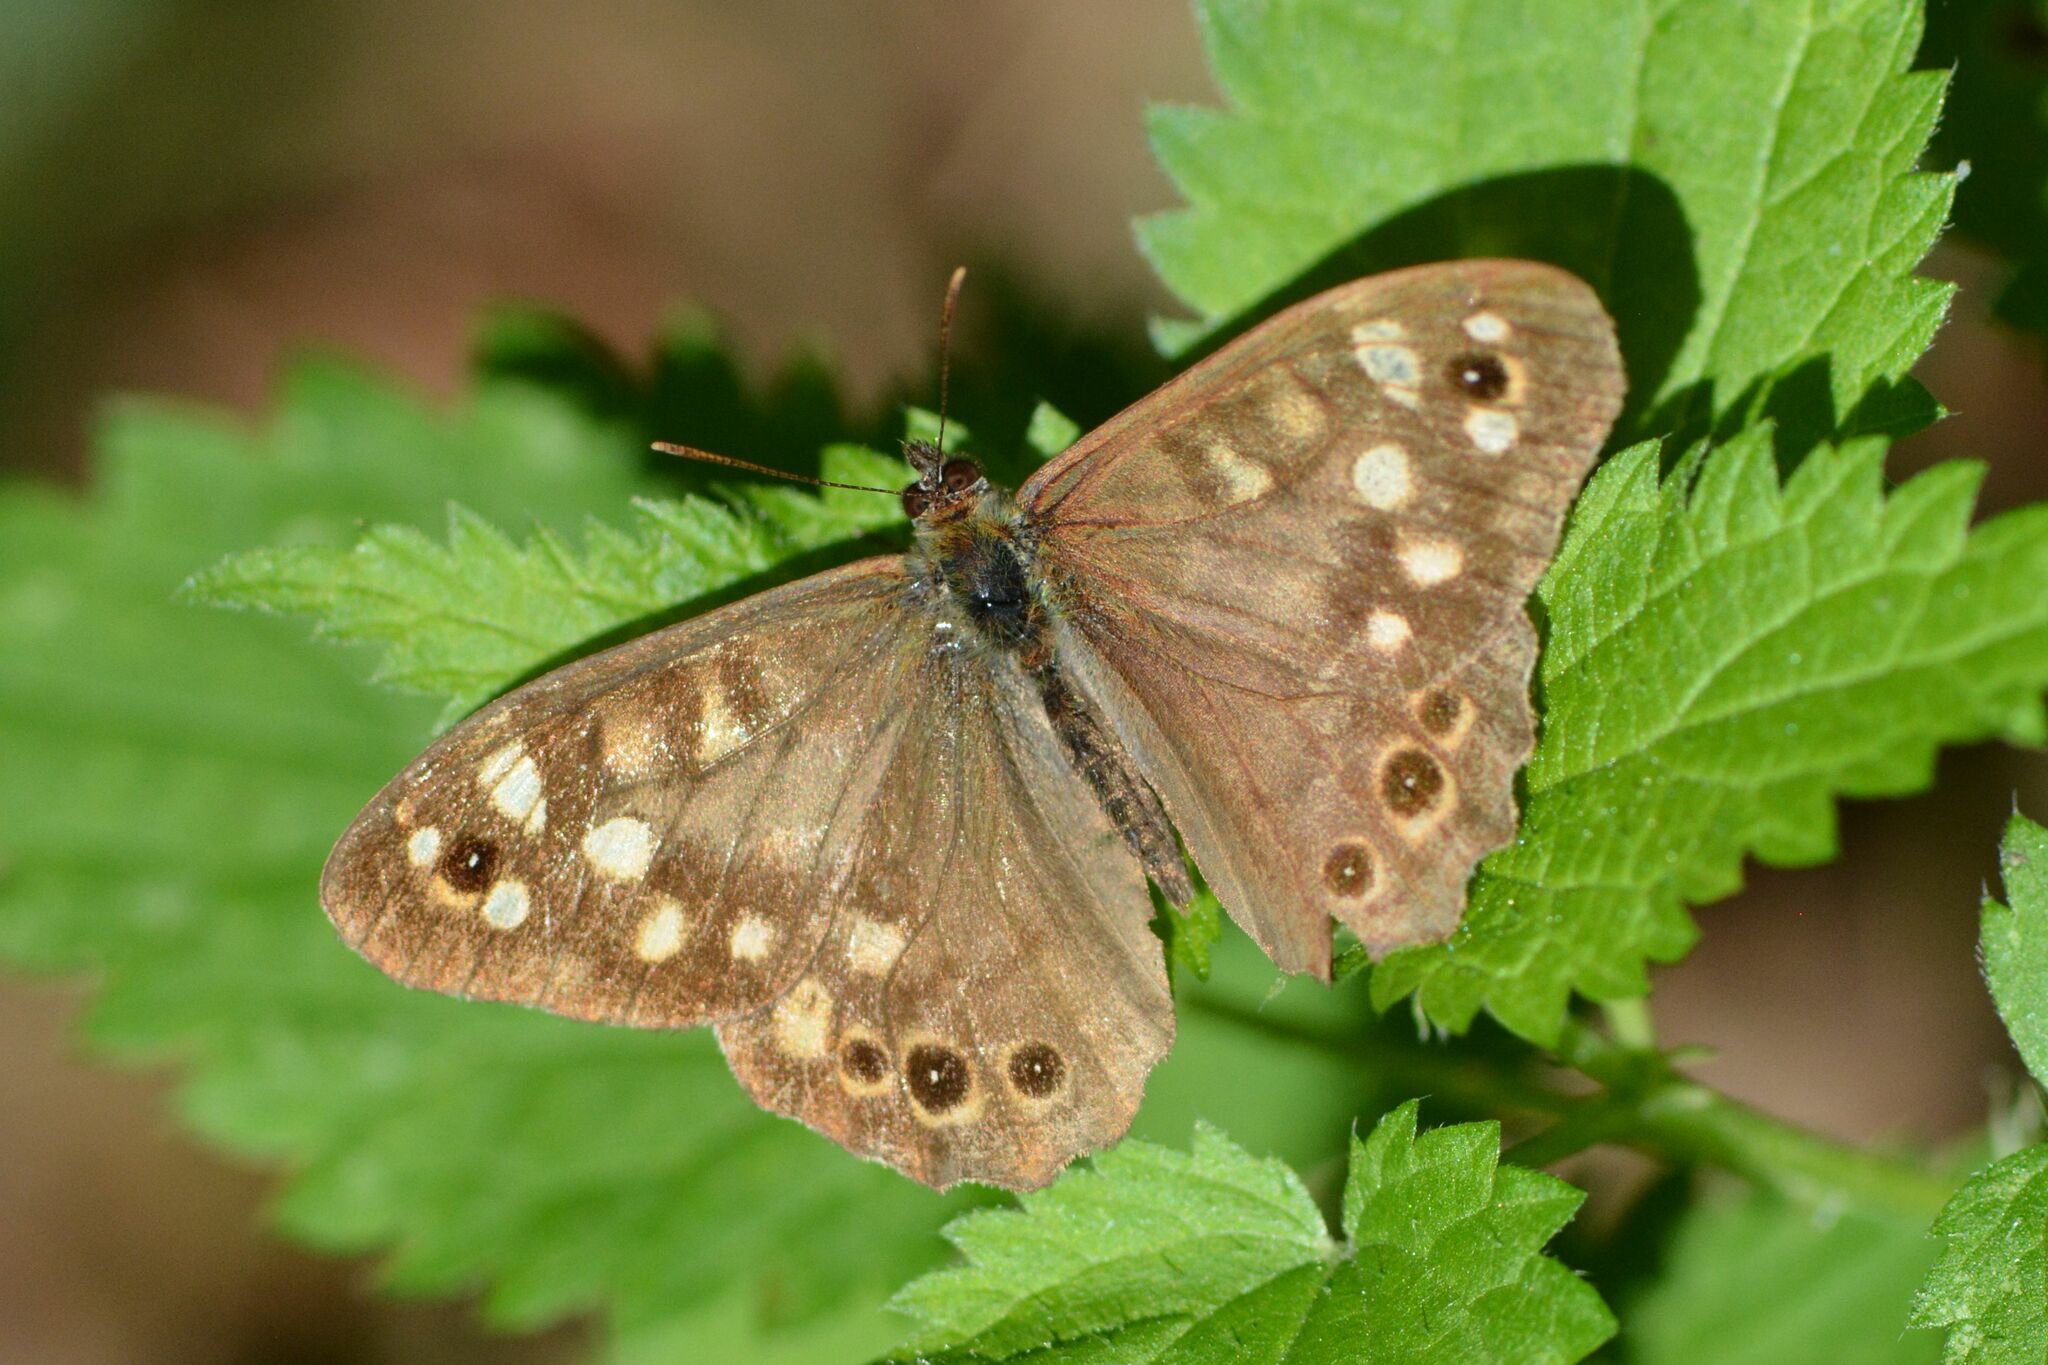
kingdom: Animalia
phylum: Arthropoda
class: Insecta
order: Lepidoptera
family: Nymphalidae
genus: Pararge
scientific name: Pararge aegeria
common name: Speckled wood
